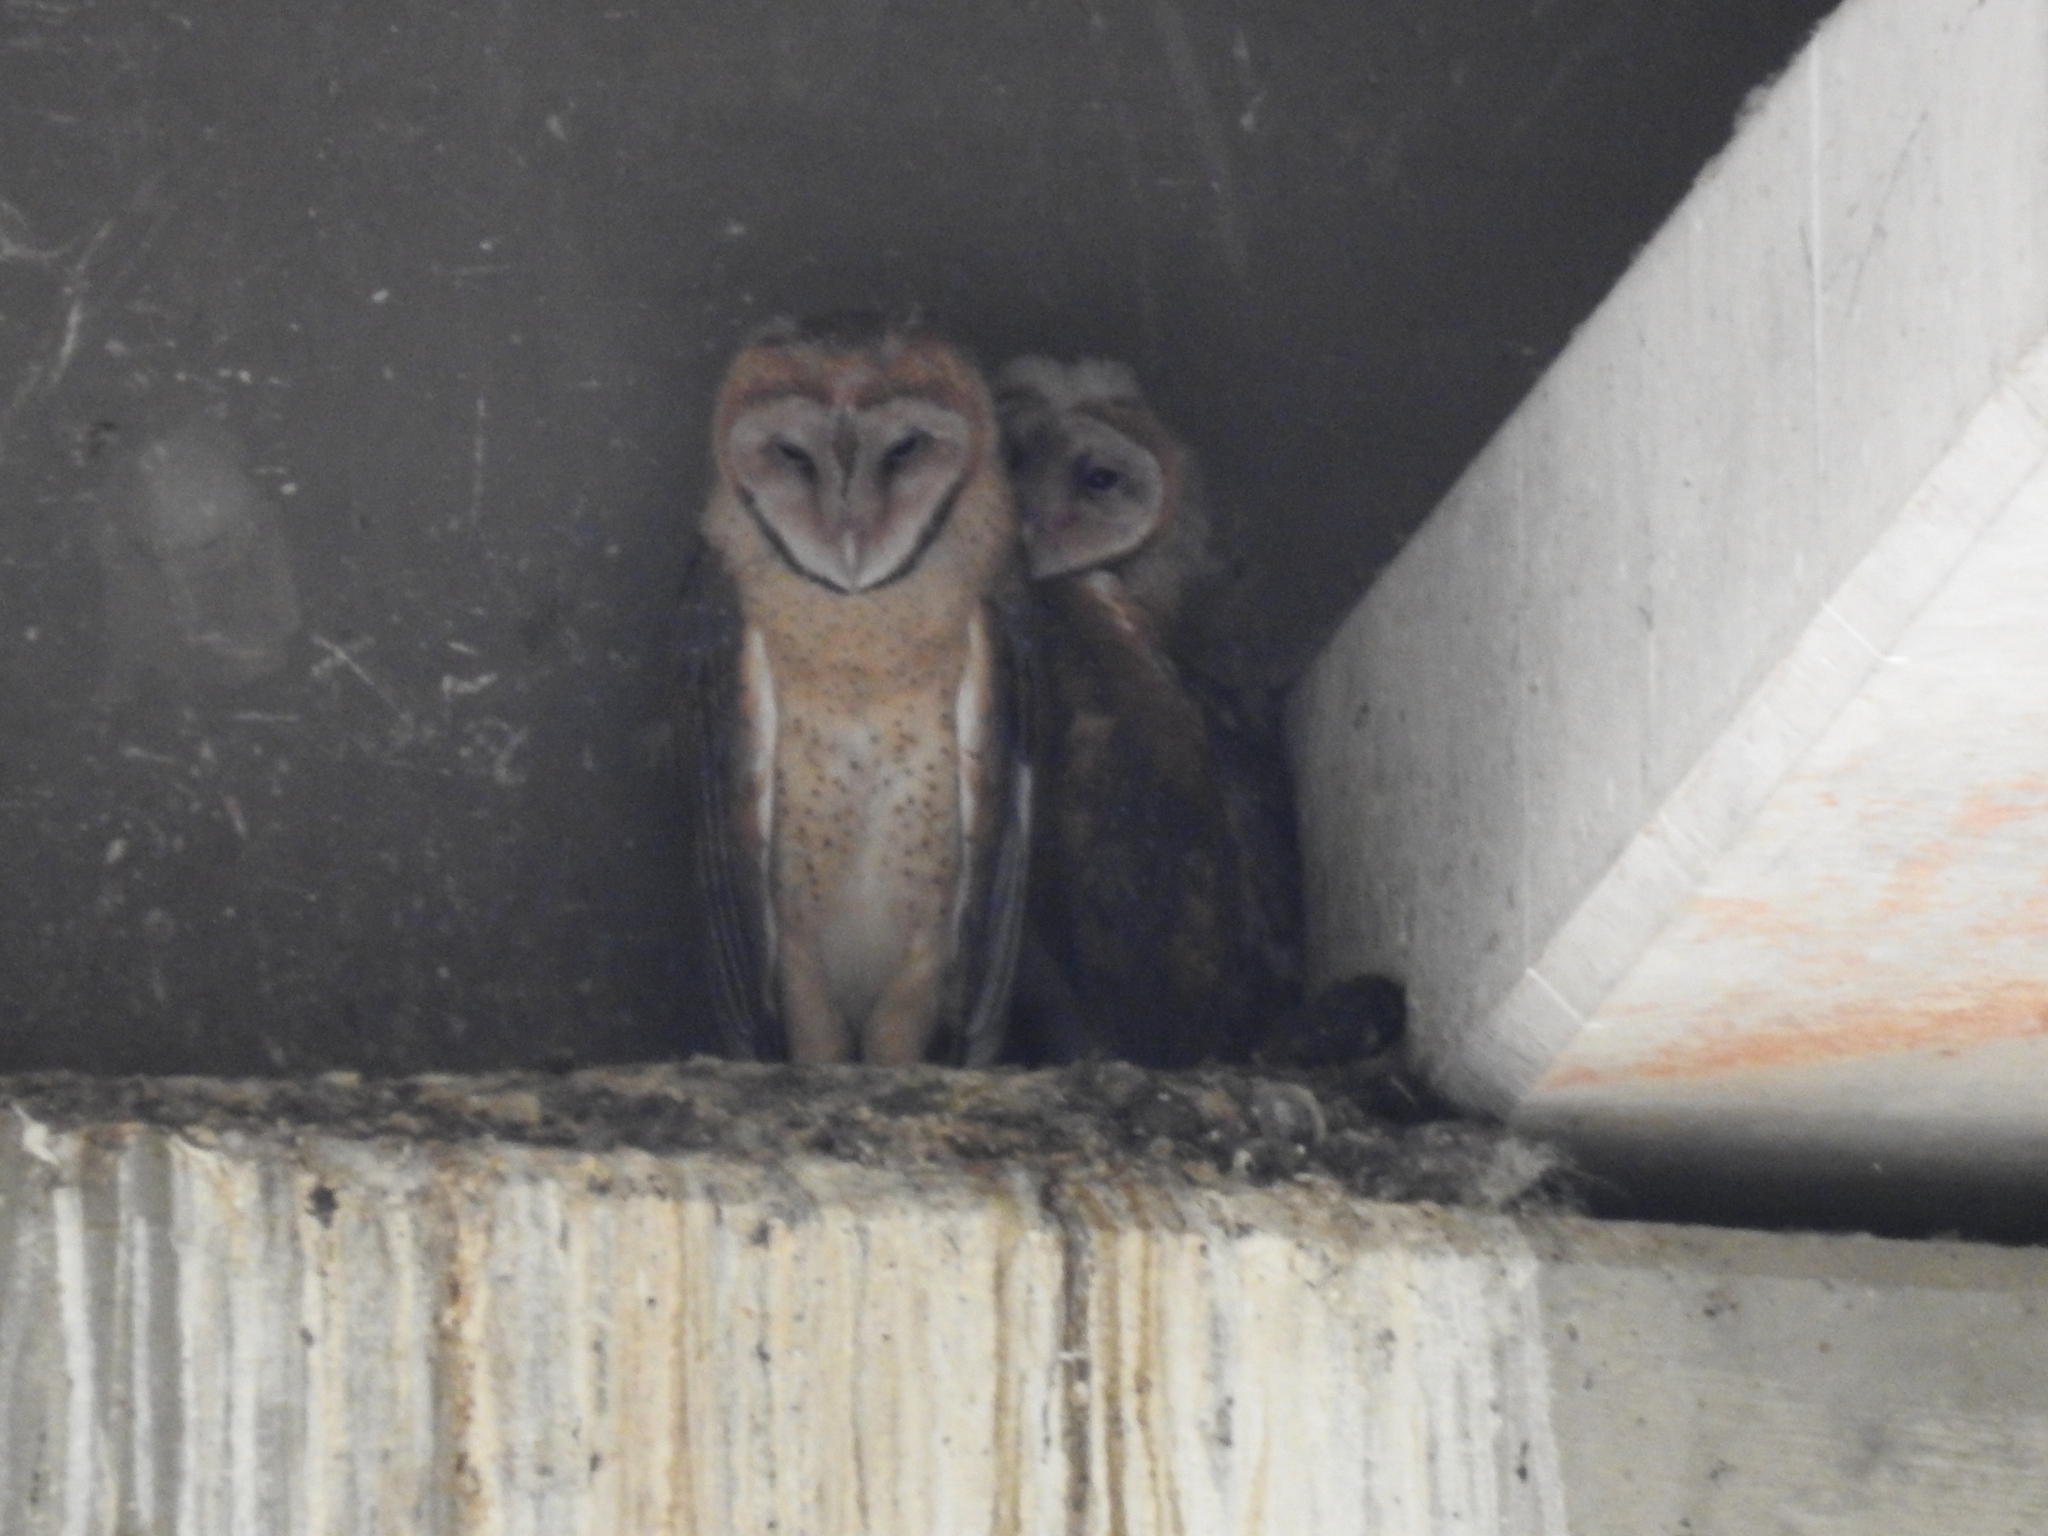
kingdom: Animalia
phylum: Chordata
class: Aves
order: Strigiformes
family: Tytonidae
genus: Tyto
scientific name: Tyto alba
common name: Barn owl
